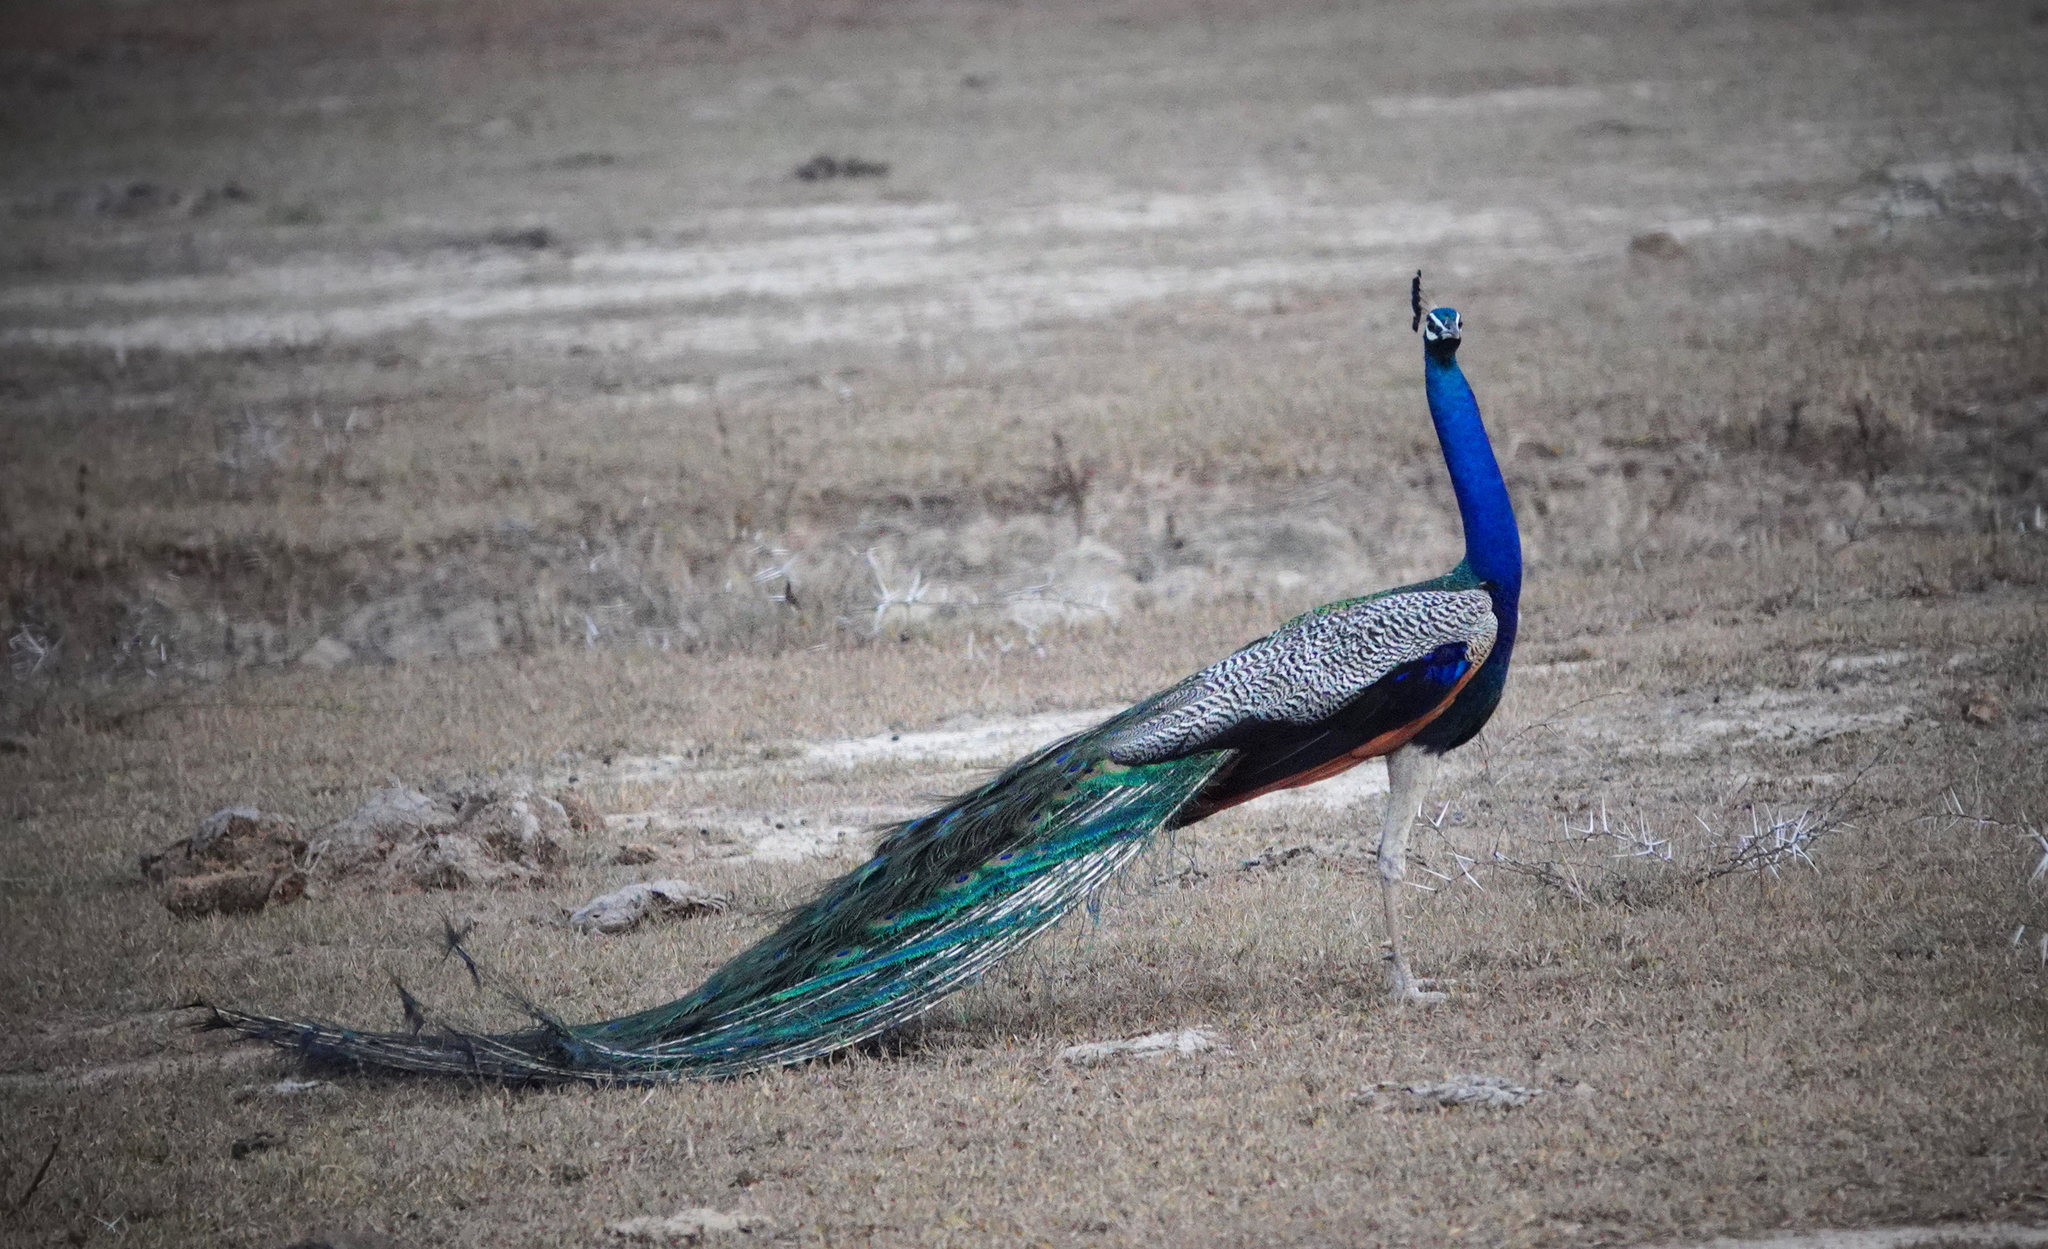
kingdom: Animalia
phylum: Chordata
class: Aves
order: Galliformes
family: Phasianidae
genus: Pavo
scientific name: Pavo cristatus
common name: Indian peafowl
